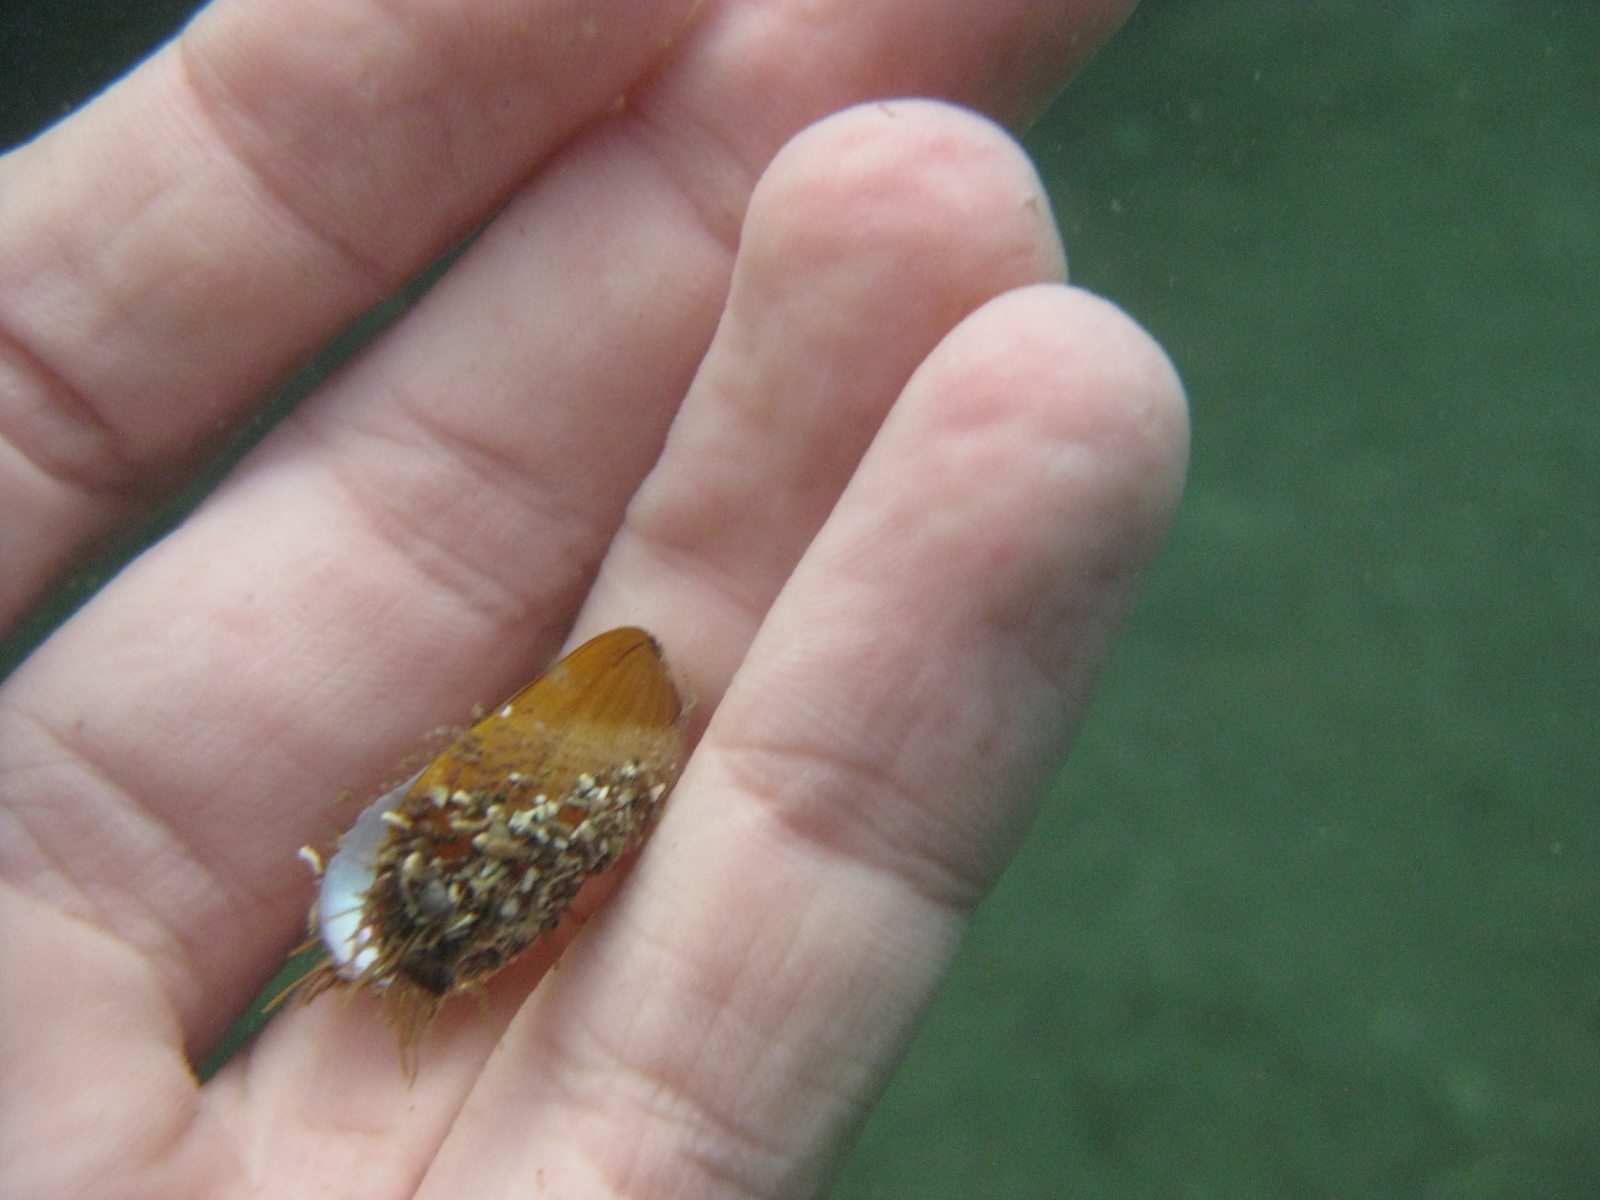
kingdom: Animalia
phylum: Mollusca
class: Bivalvia
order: Mytilida
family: Mytilidae
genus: Modiolus
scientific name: Modiolus areolatus
